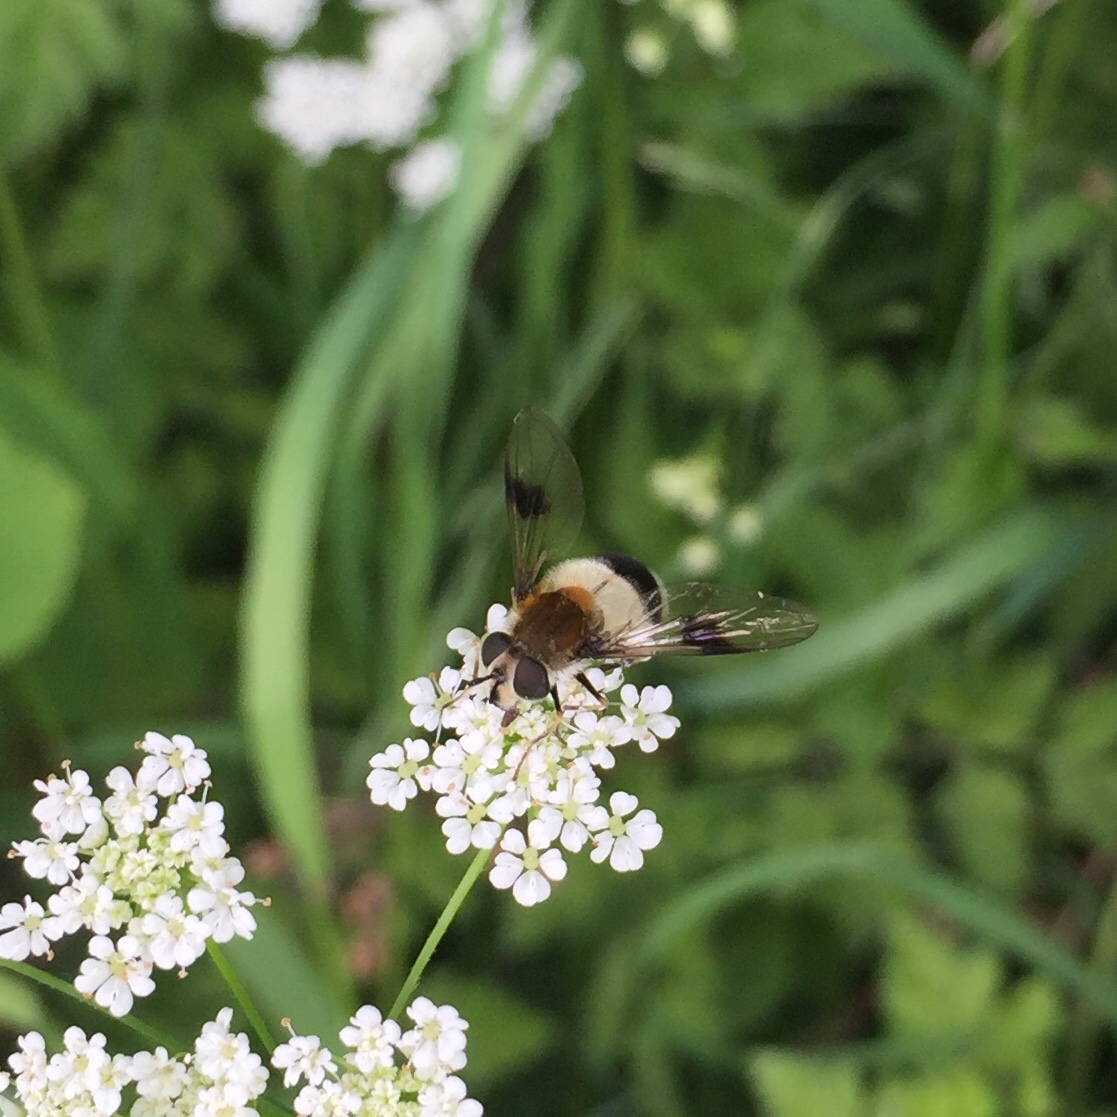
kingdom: Animalia
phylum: Arthropoda
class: Insecta
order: Diptera
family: Syrphidae
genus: Leucozona
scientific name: Leucozona lucorum
